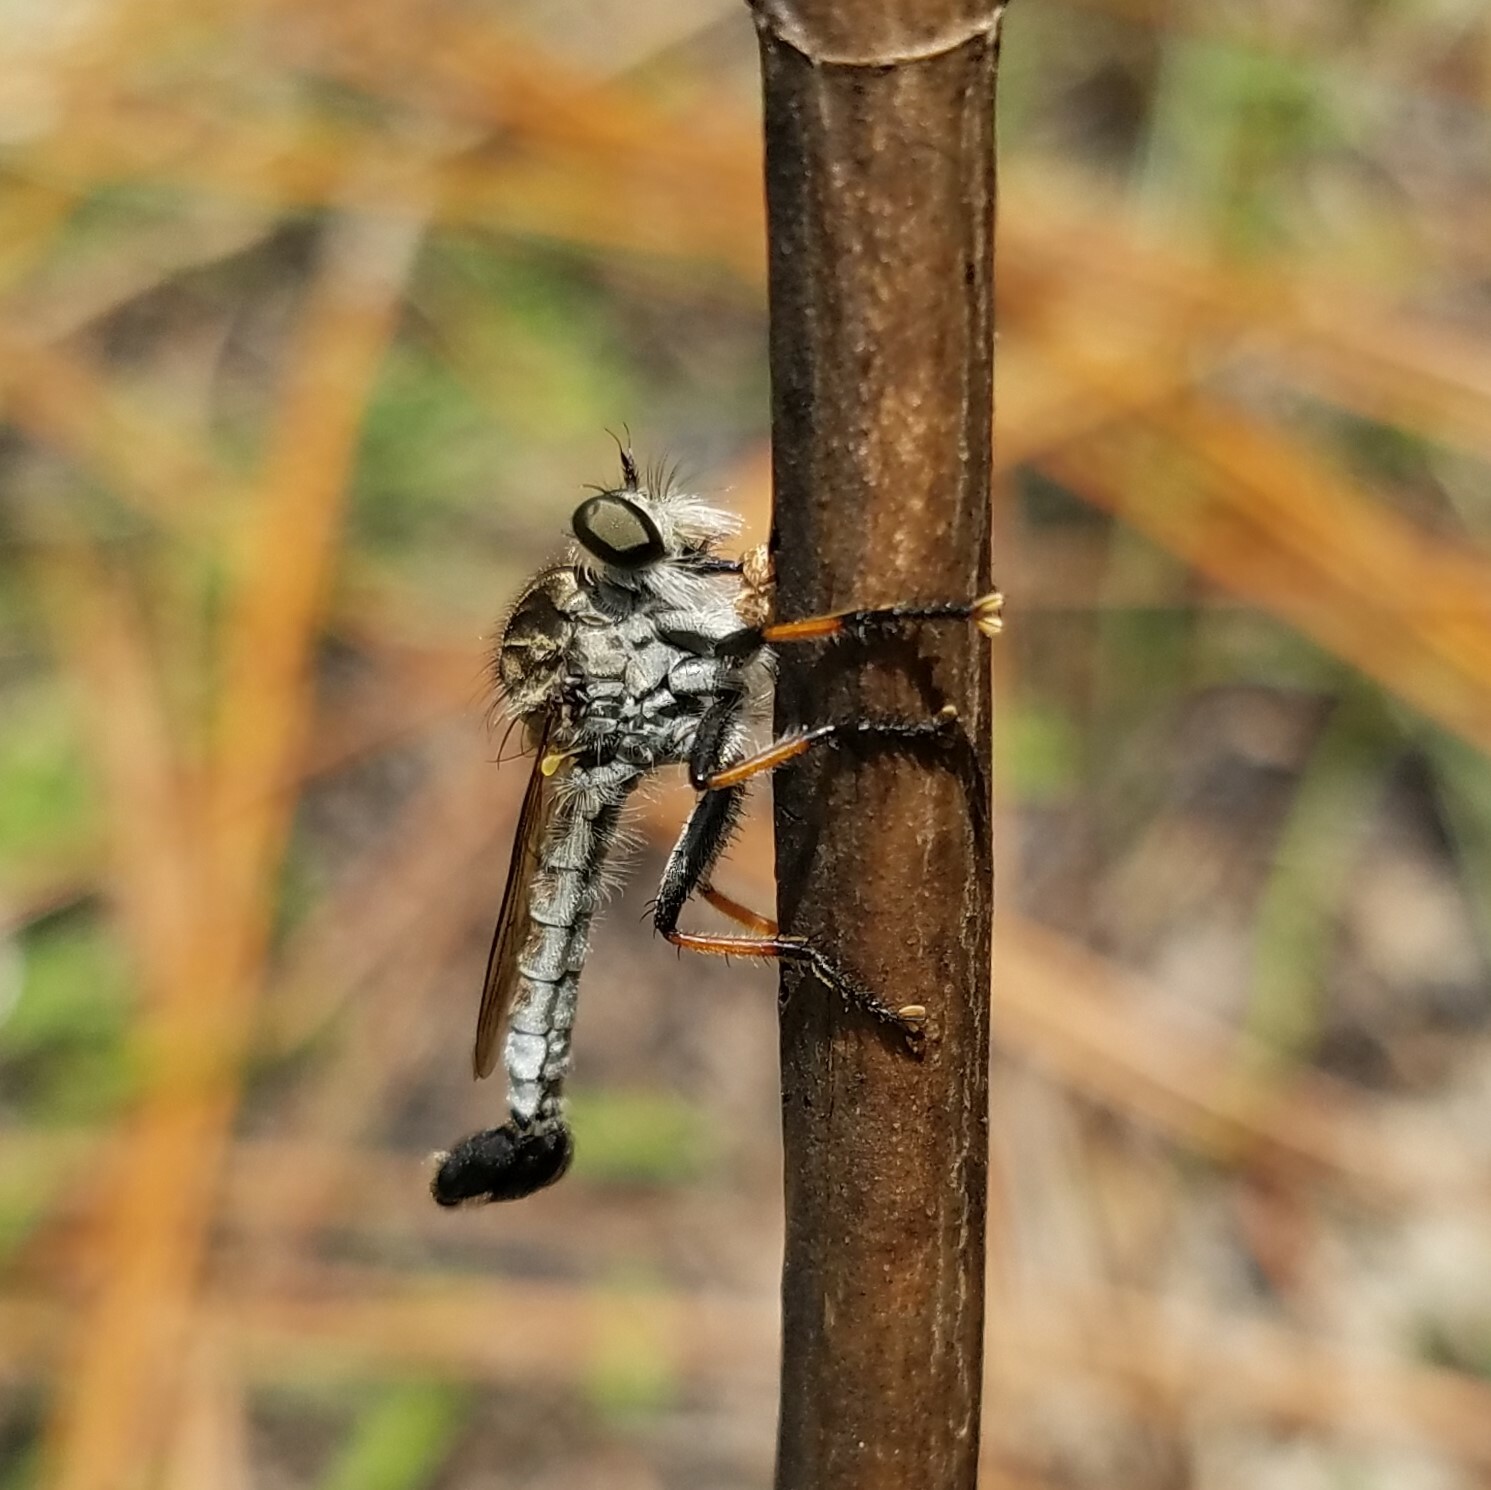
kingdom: Animalia
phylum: Arthropoda
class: Insecta
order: Diptera
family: Asilidae
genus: Efferia
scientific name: Efferia apicalis
